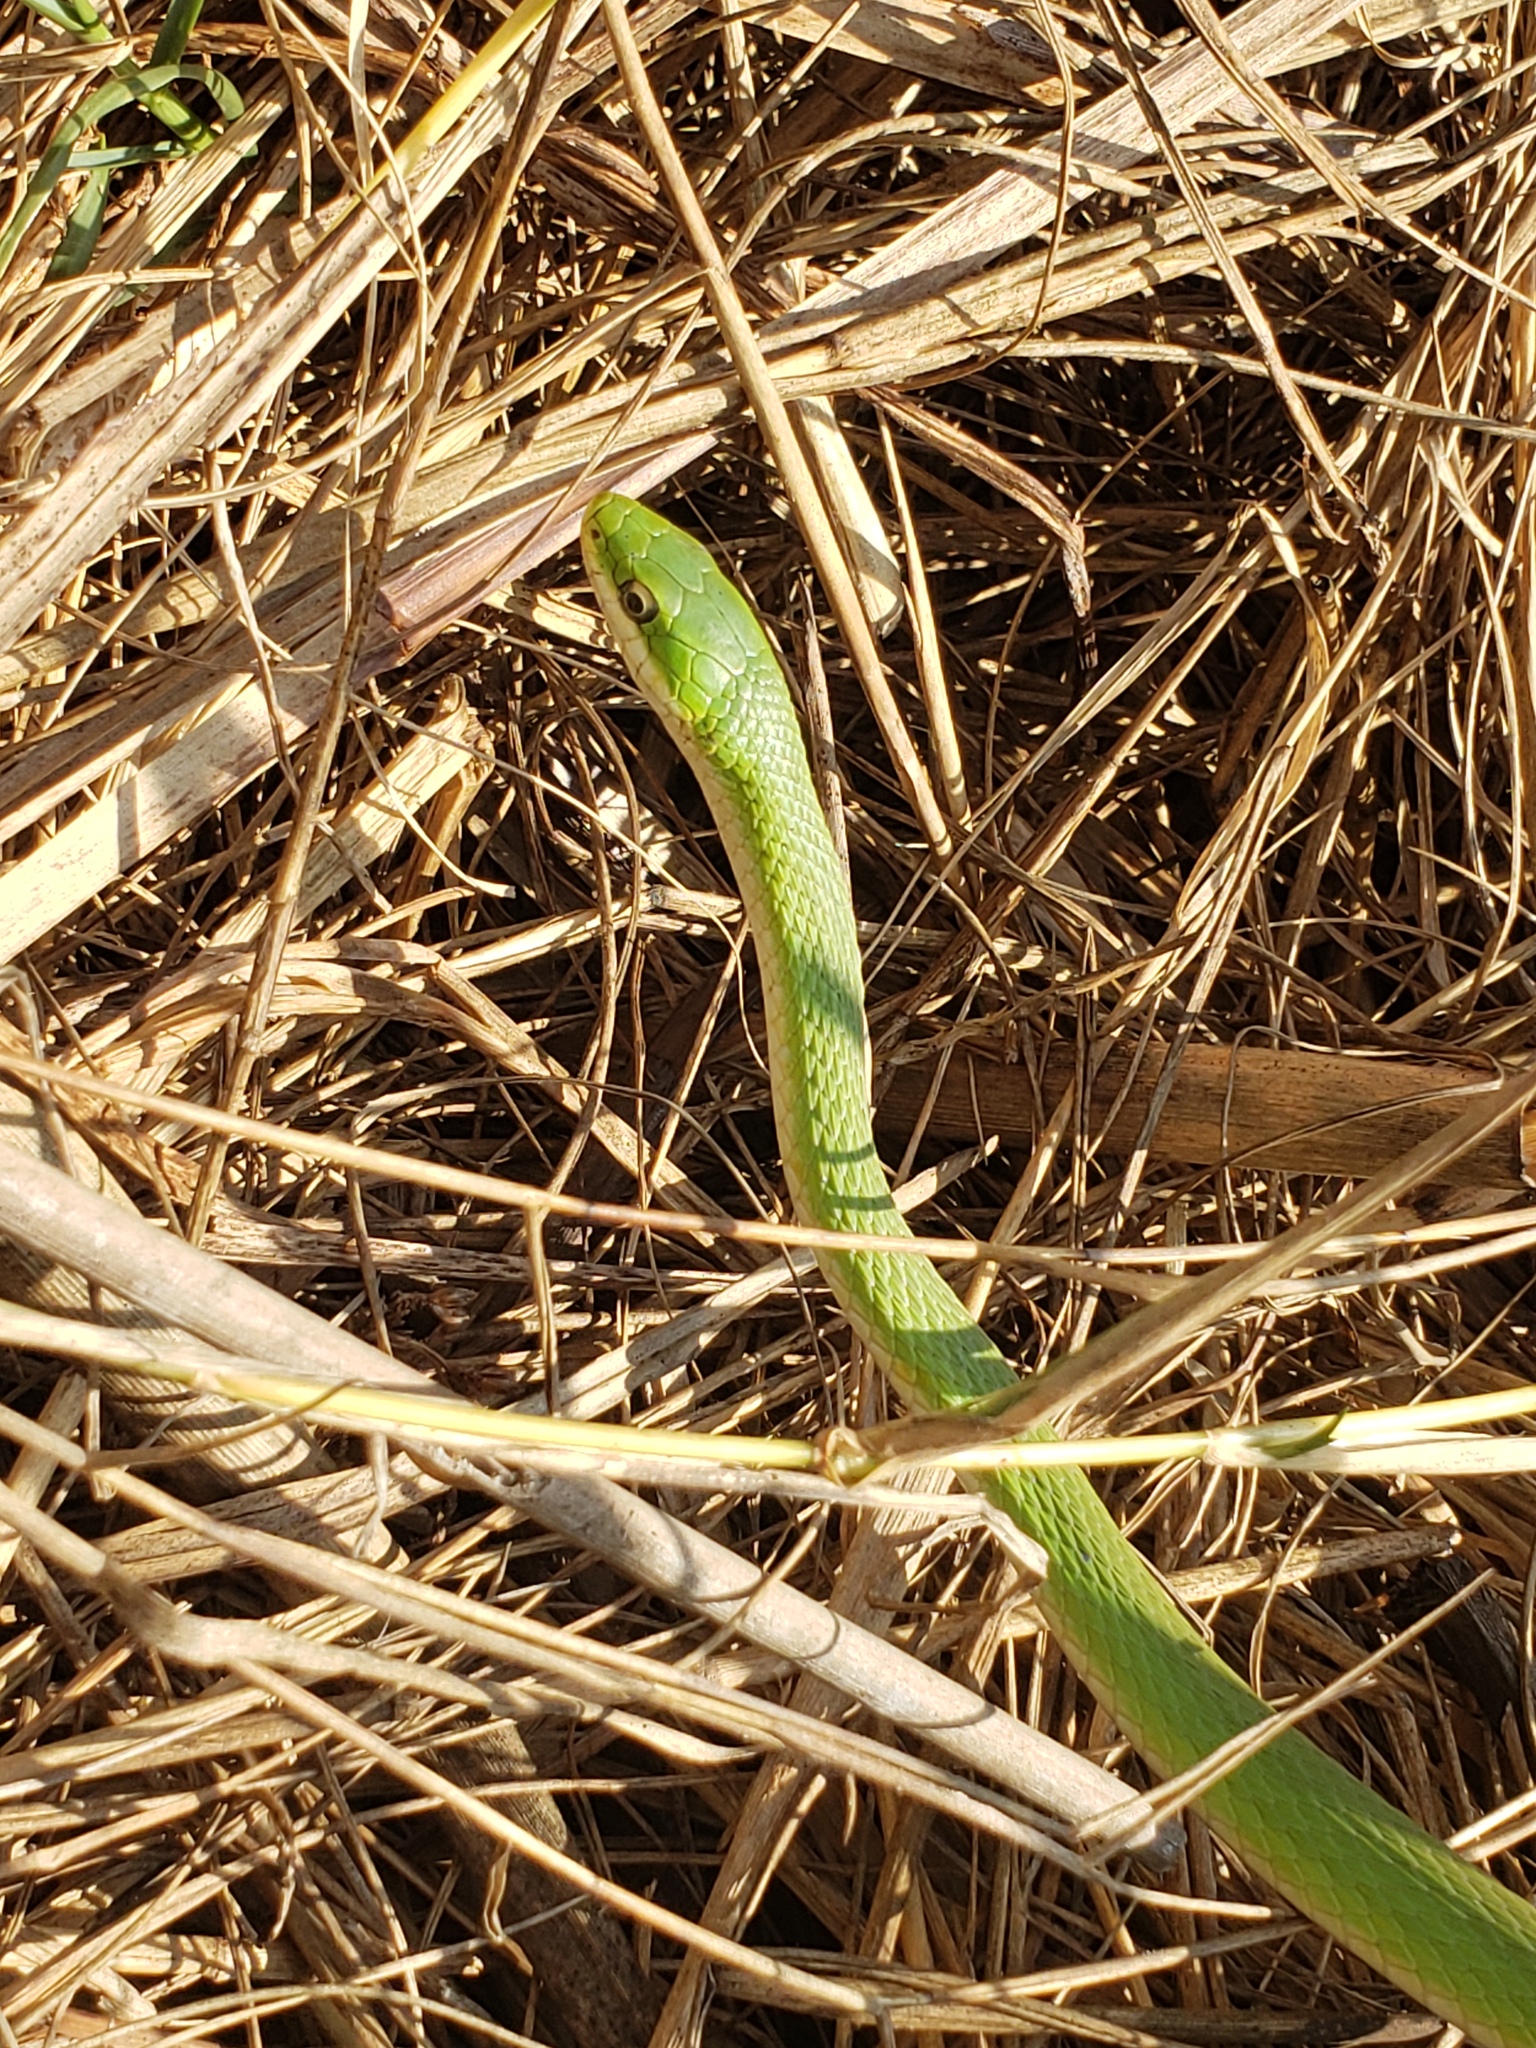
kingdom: Animalia
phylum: Chordata
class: Squamata
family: Colubridae
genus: Opheodrys
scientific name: Opheodrys aestivus
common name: Rough greensnake
